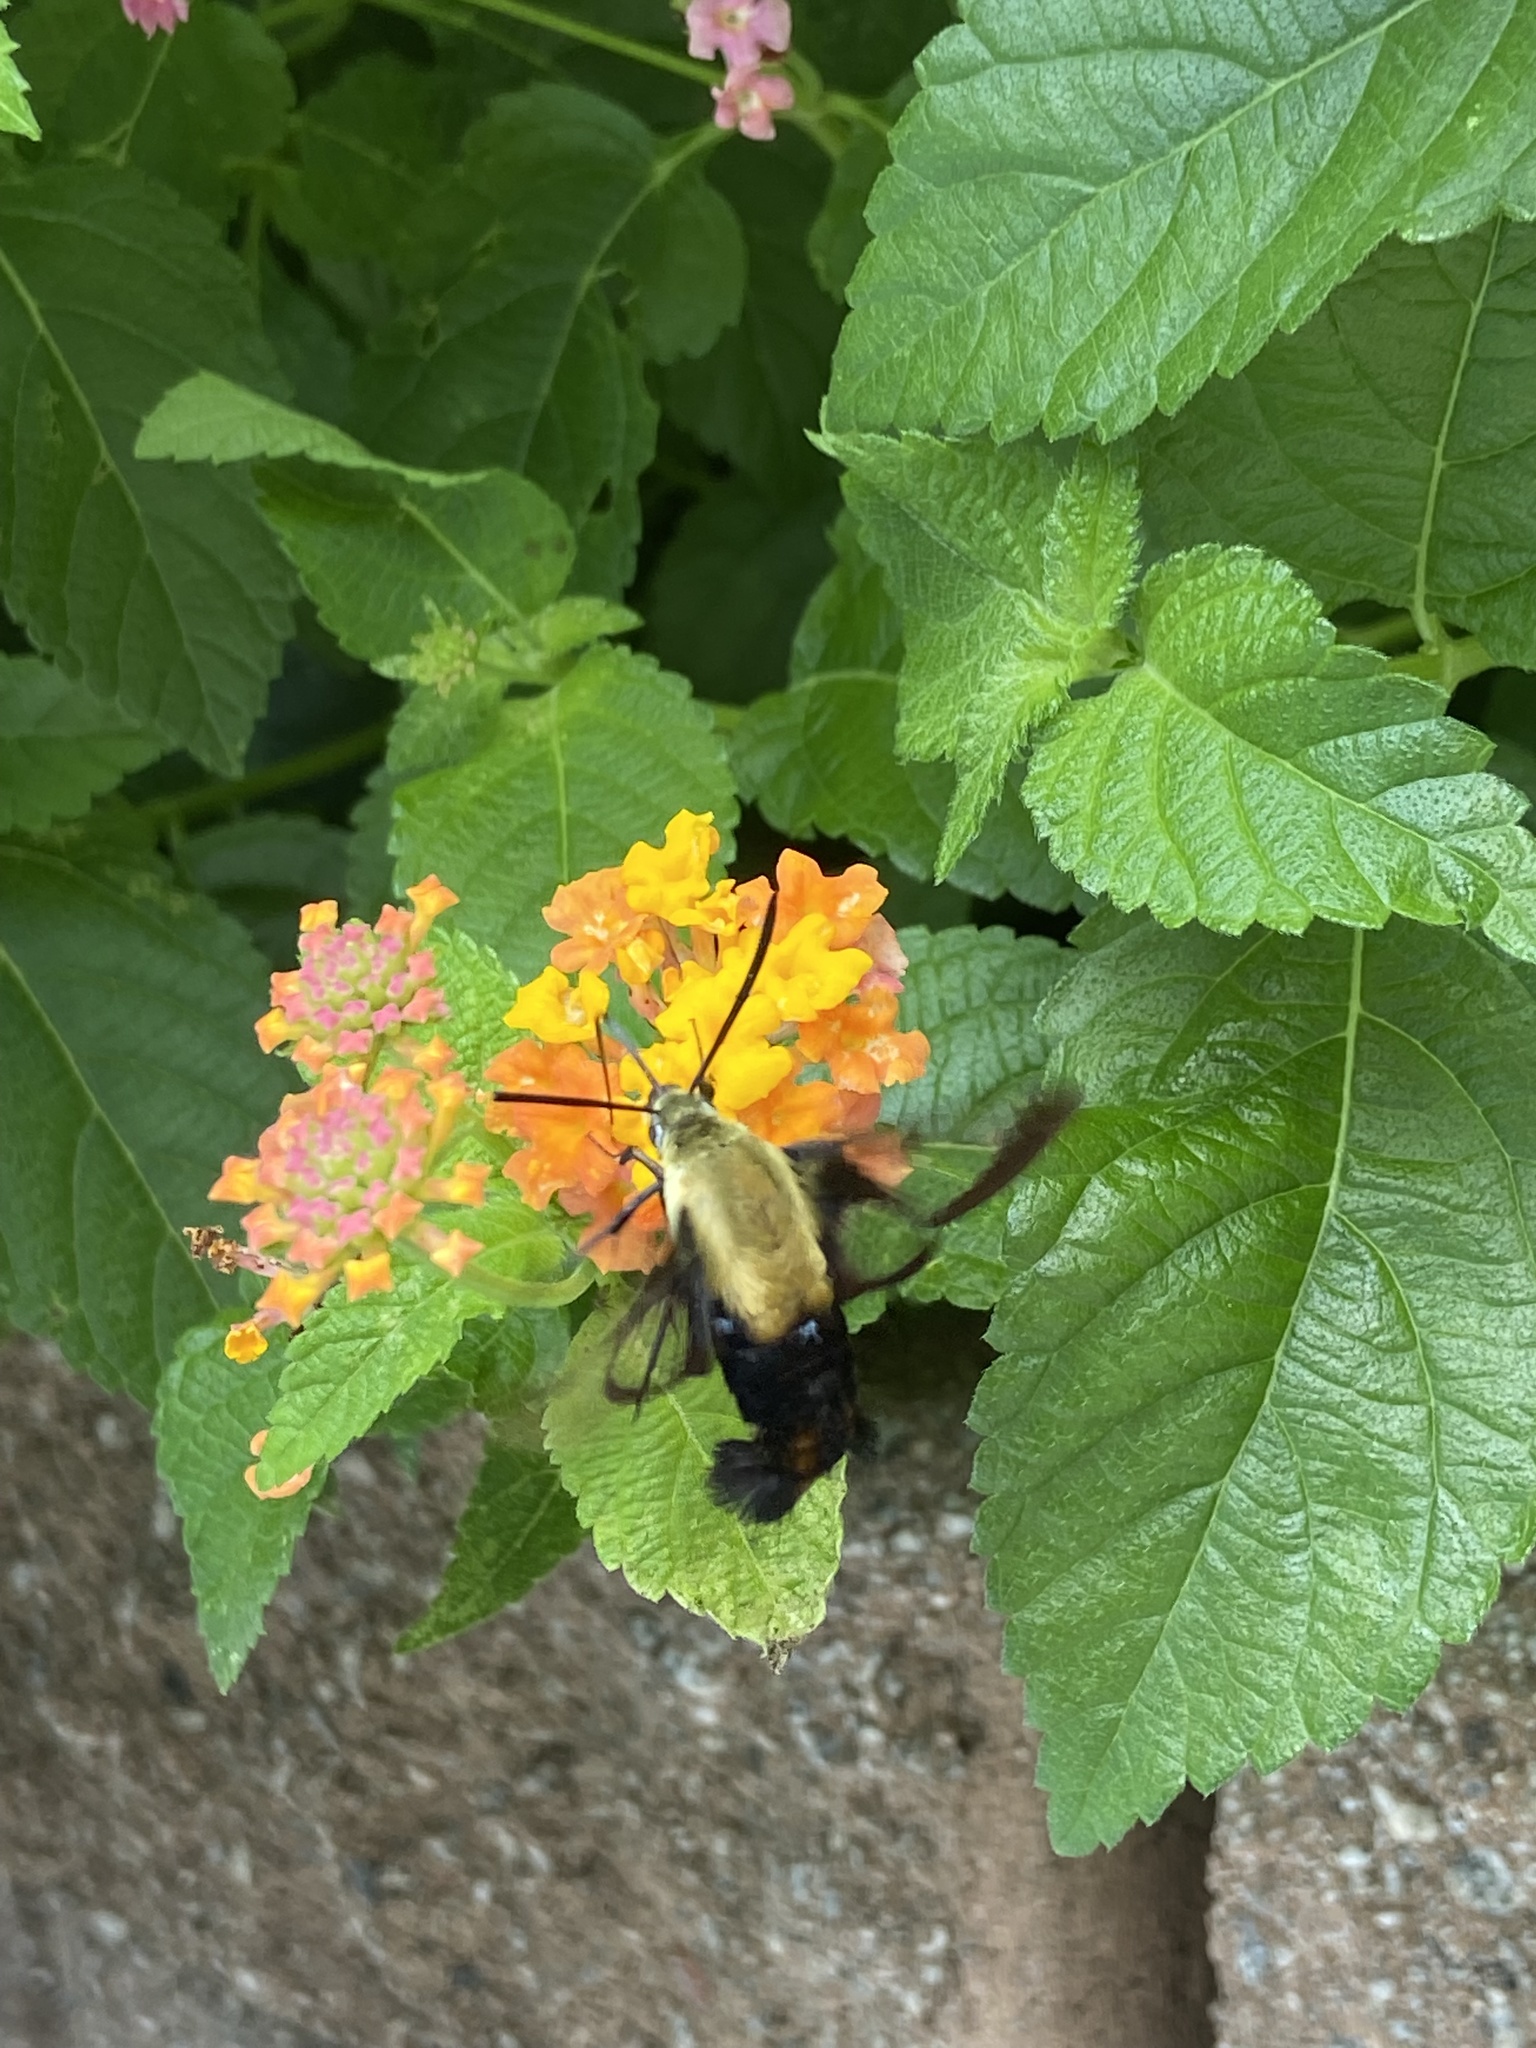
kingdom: Animalia
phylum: Arthropoda
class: Insecta
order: Lepidoptera
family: Sphingidae
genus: Hemaris
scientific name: Hemaris diffinis
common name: Bumblebee moth
